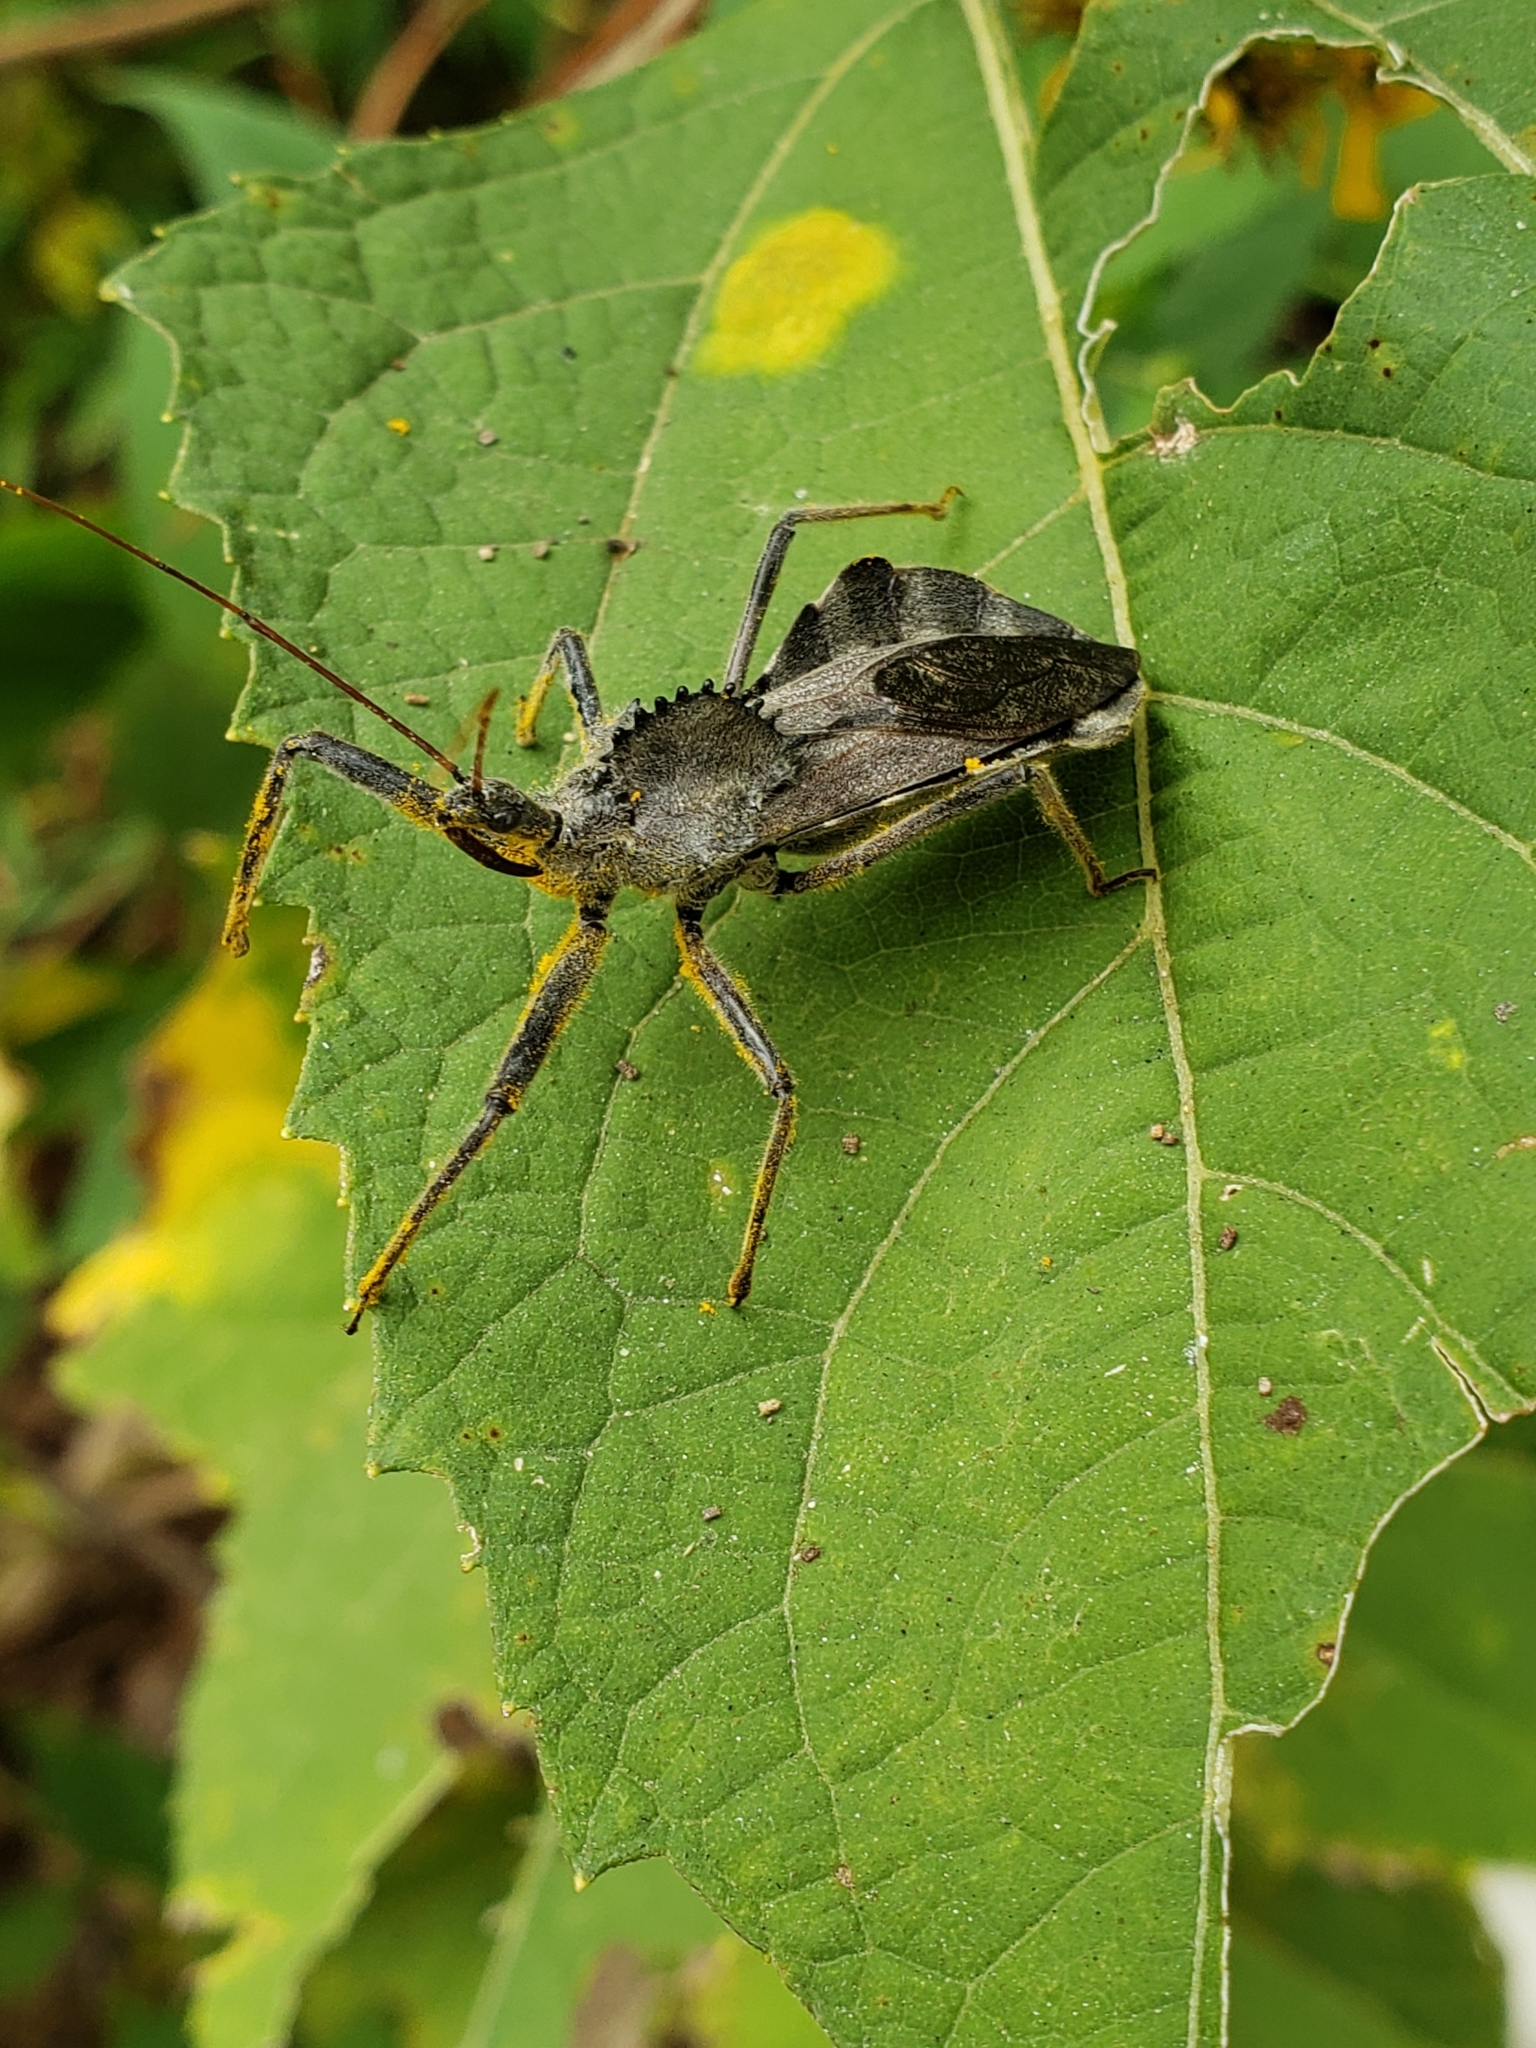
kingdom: Animalia
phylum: Arthropoda
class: Insecta
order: Hemiptera
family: Reduviidae
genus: Arilus
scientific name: Arilus cristatus
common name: North american wheel bug
